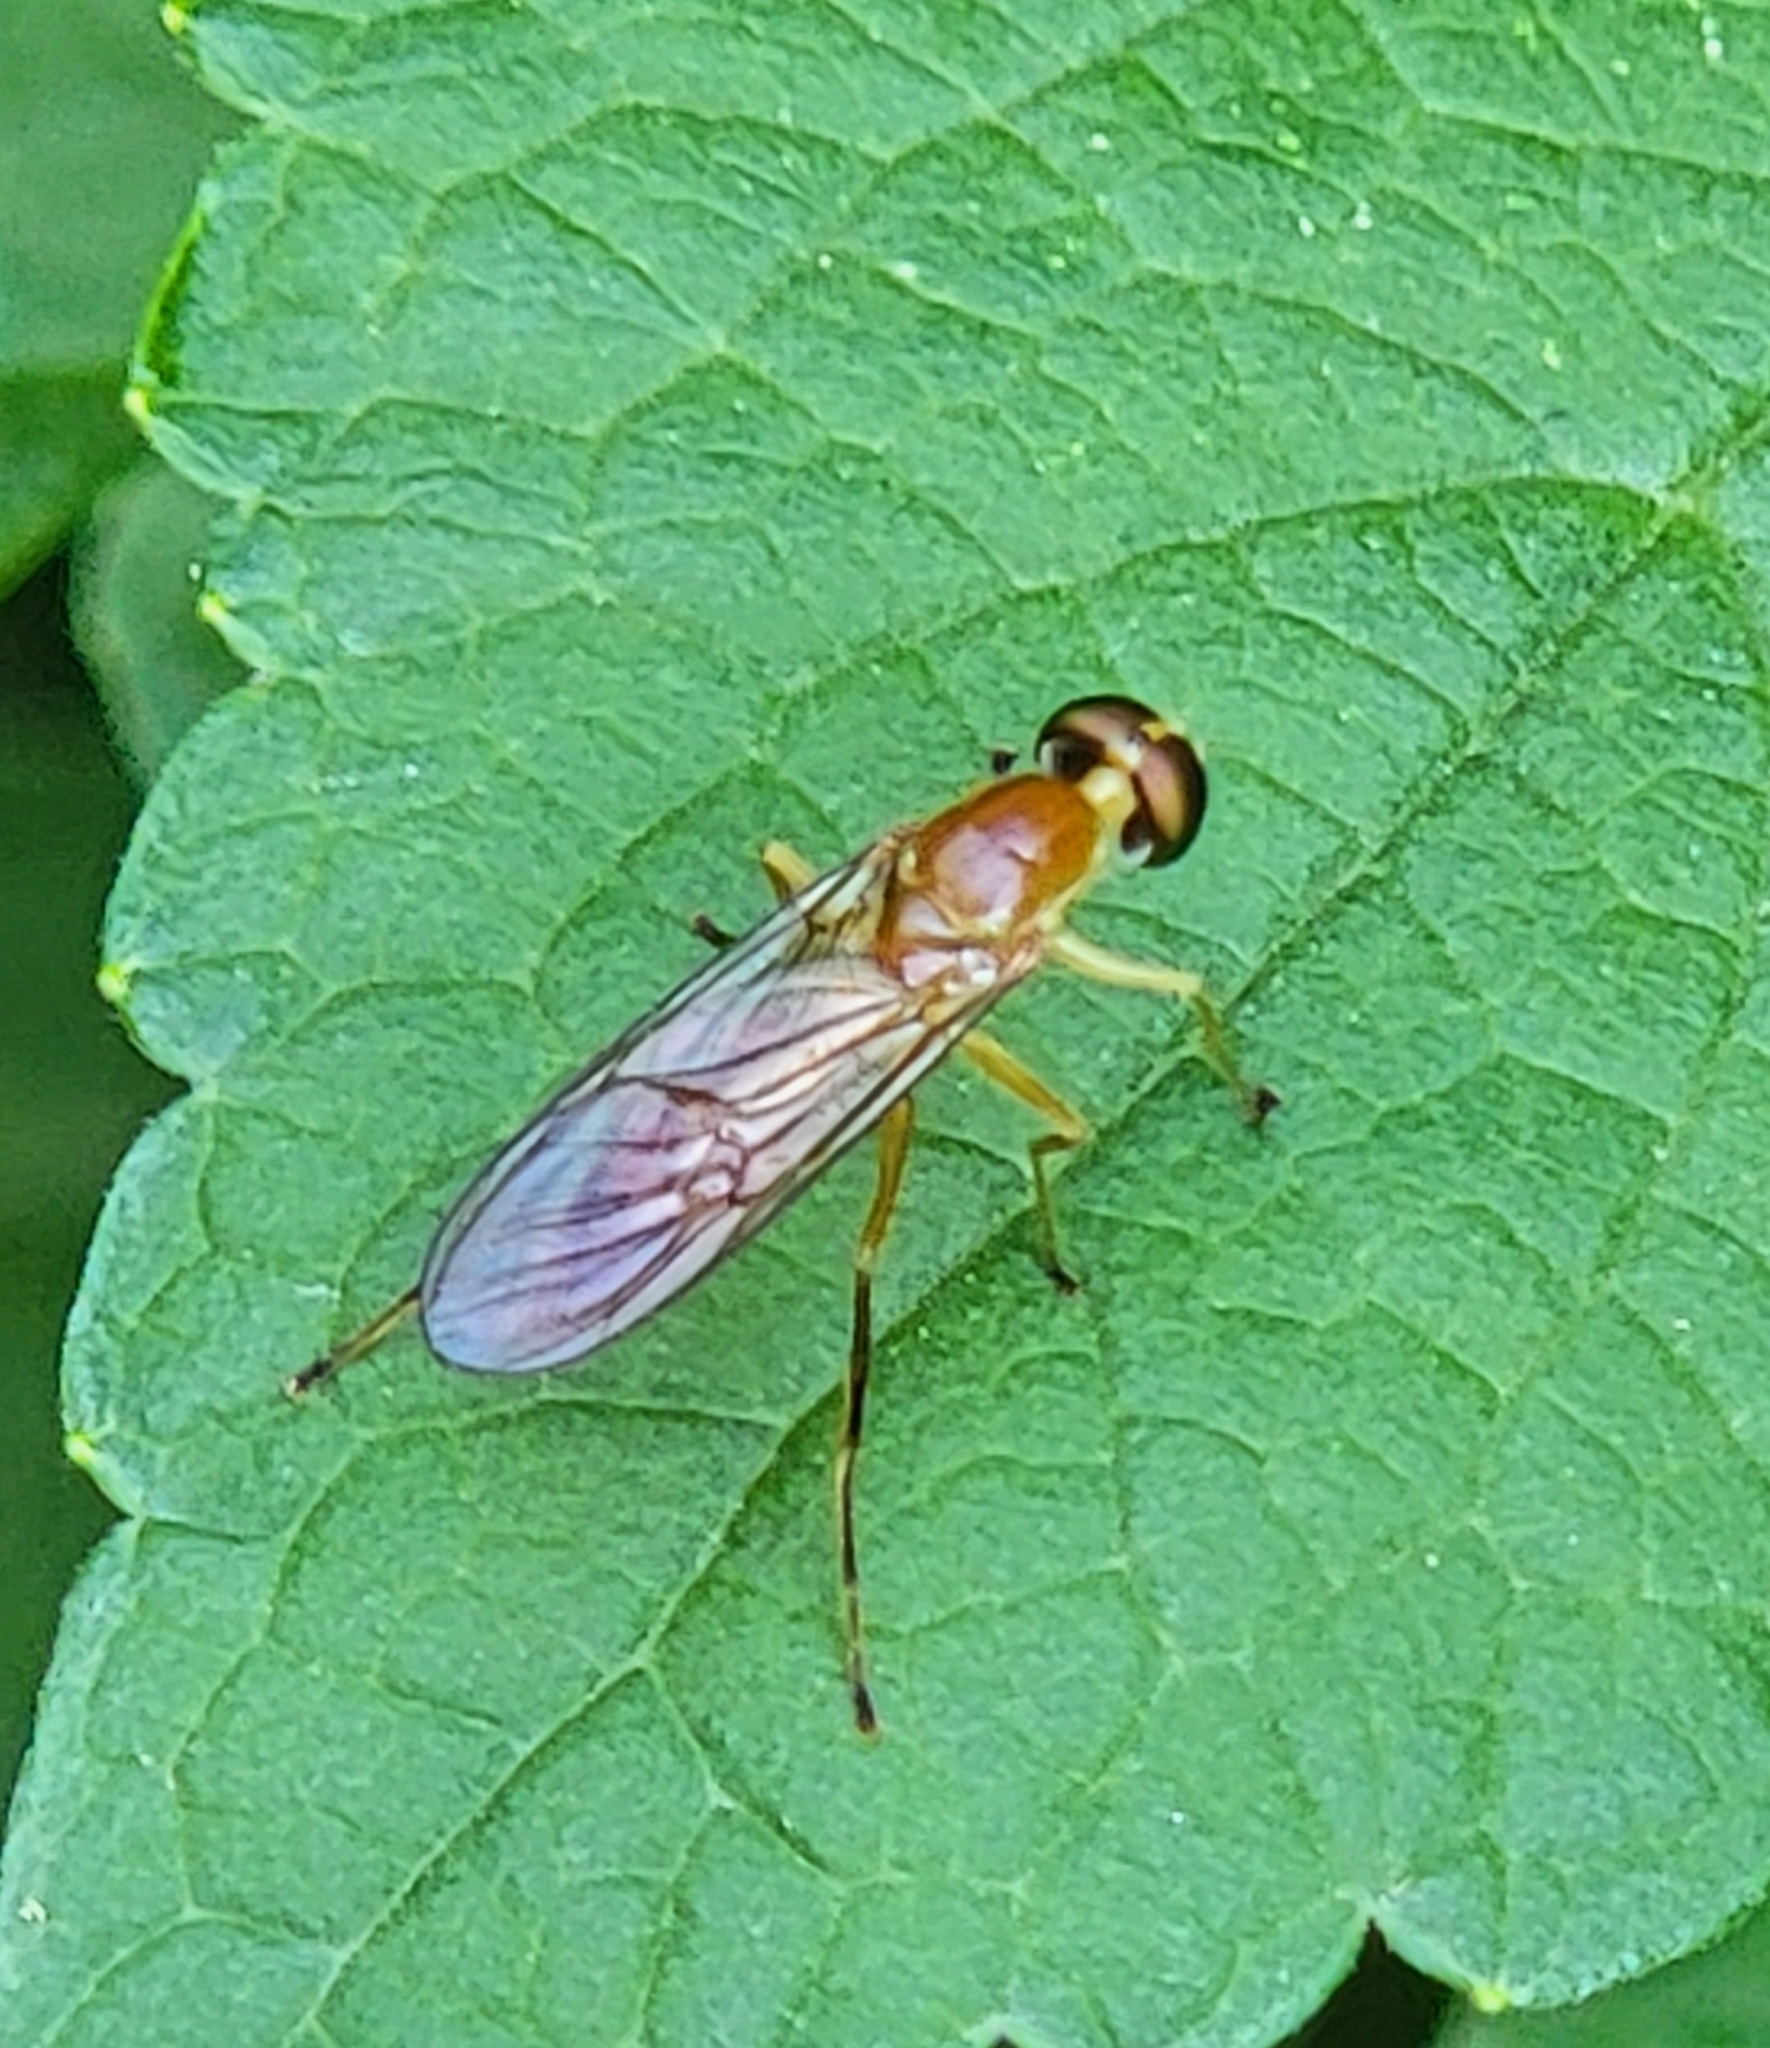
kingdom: Animalia
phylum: Arthropoda
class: Insecta
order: Diptera
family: Stratiomyidae
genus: Ptecticus
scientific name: Ptecticus trivittatus
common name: Compost fly
